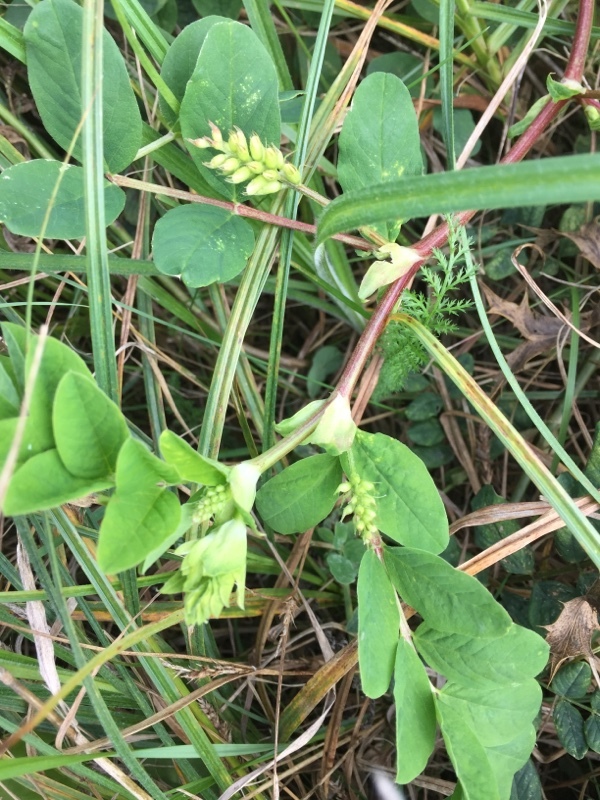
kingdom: Plantae
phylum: Tracheophyta
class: Magnoliopsida
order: Fabales
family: Fabaceae
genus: Astragalus
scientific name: Astragalus glycyphyllos
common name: Wild liquorice
